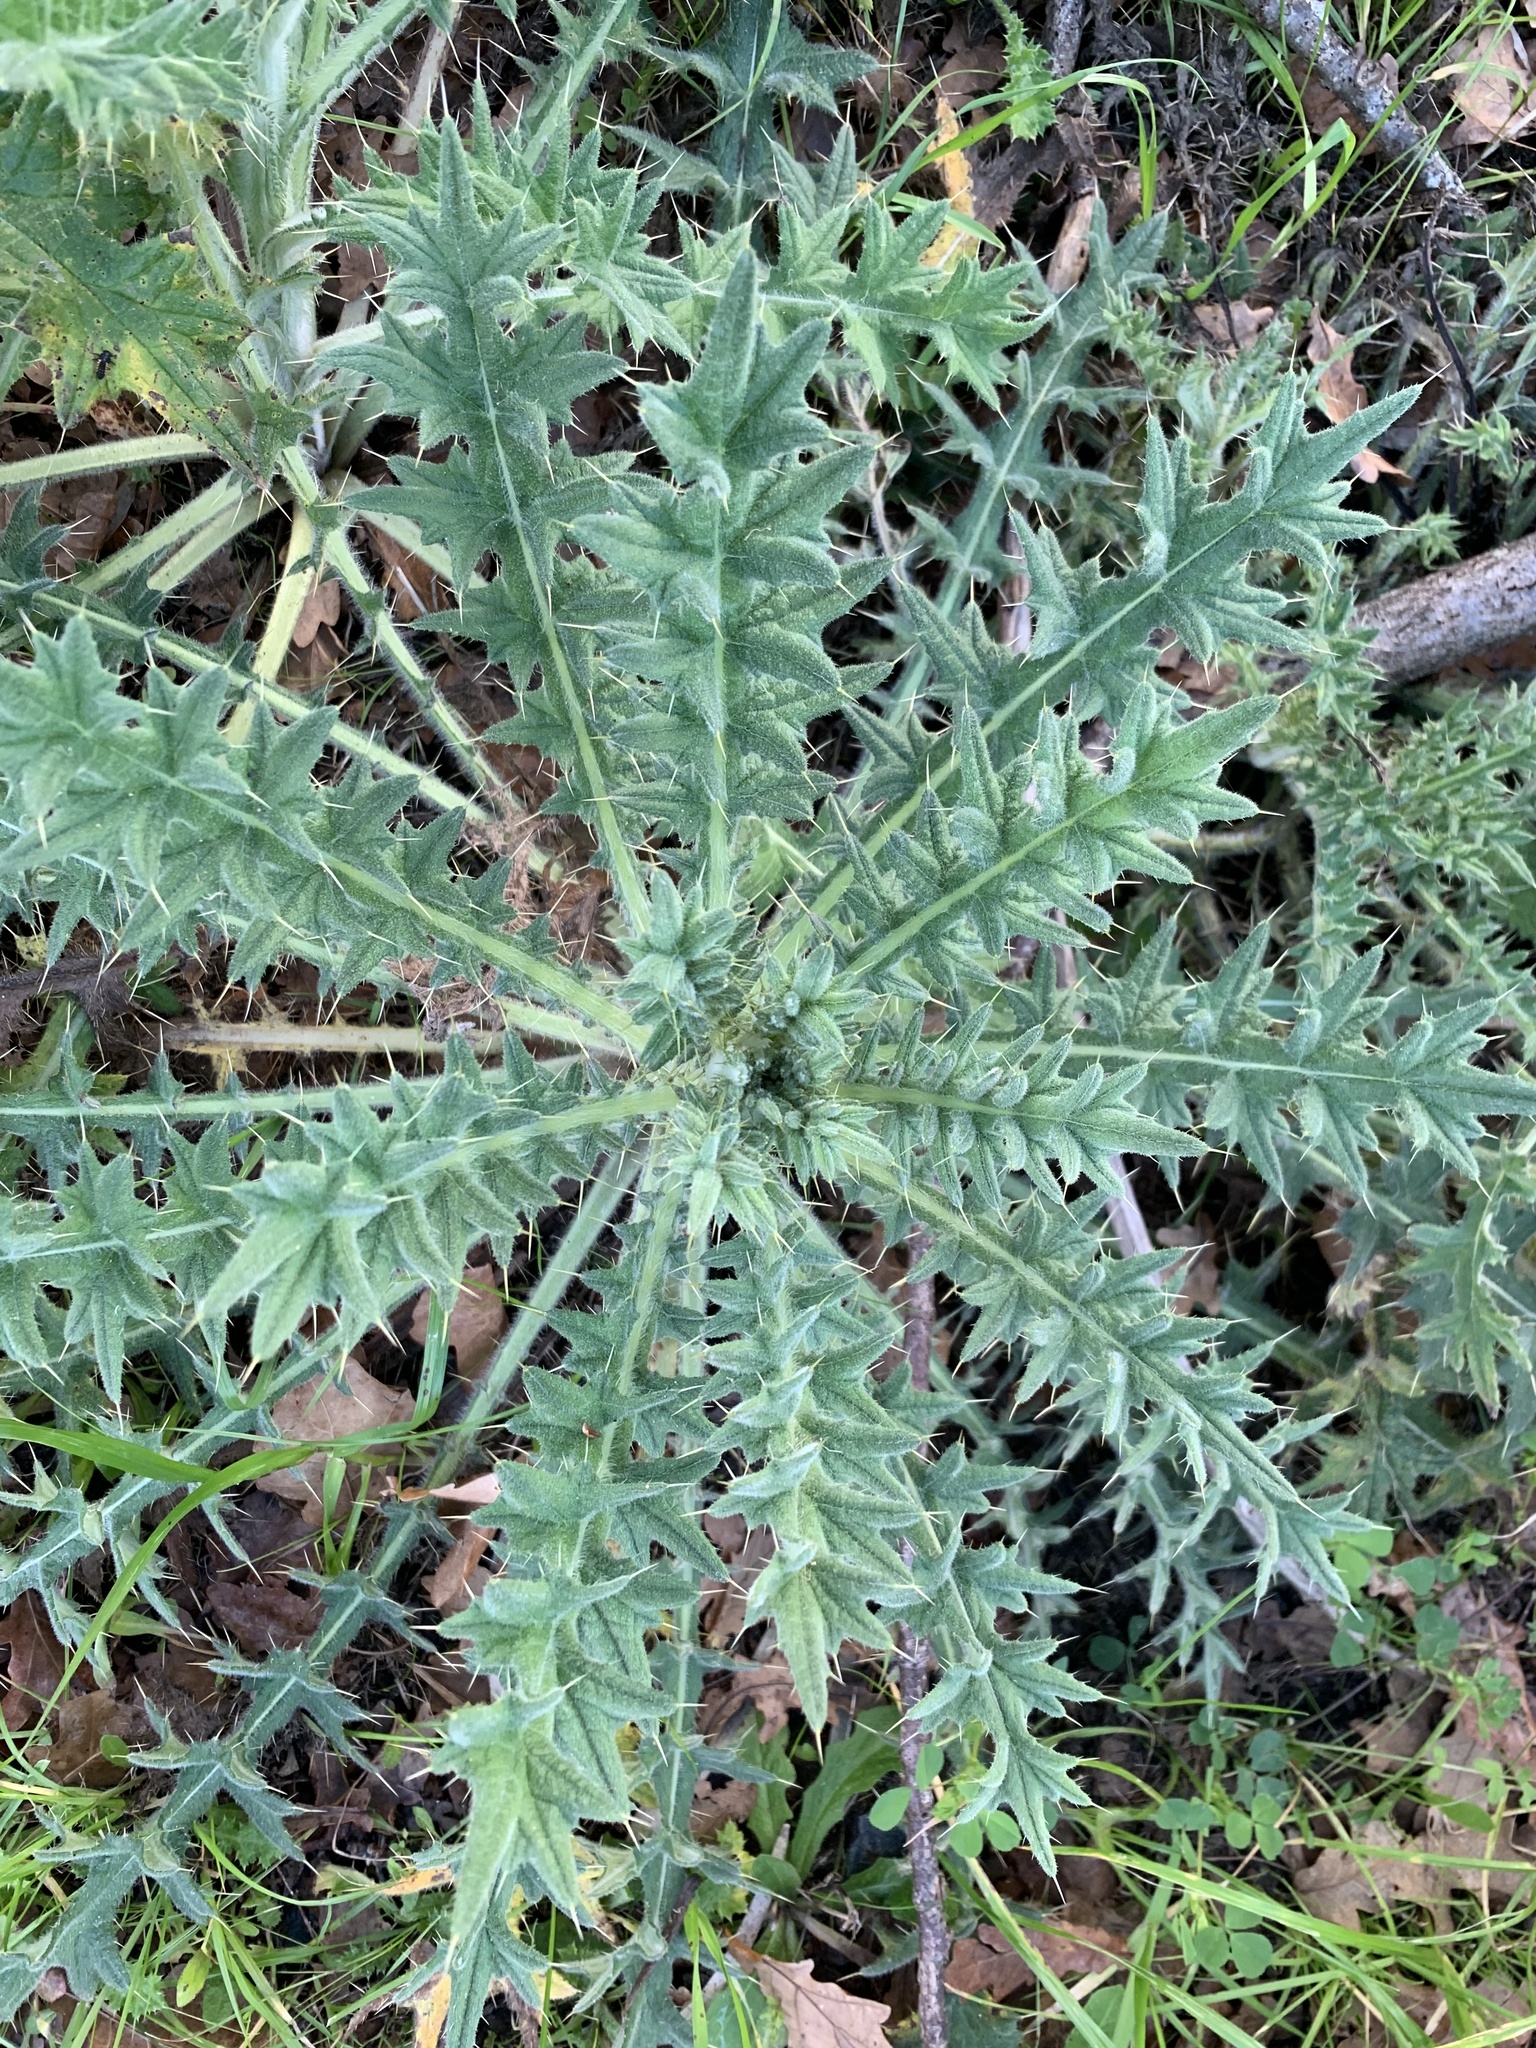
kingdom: Plantae
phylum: Tracheophyta
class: Magnoliopsida
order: Asterales
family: Asteraceae
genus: Cirsium
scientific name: Cirsium vulgare
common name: Bull thistle
